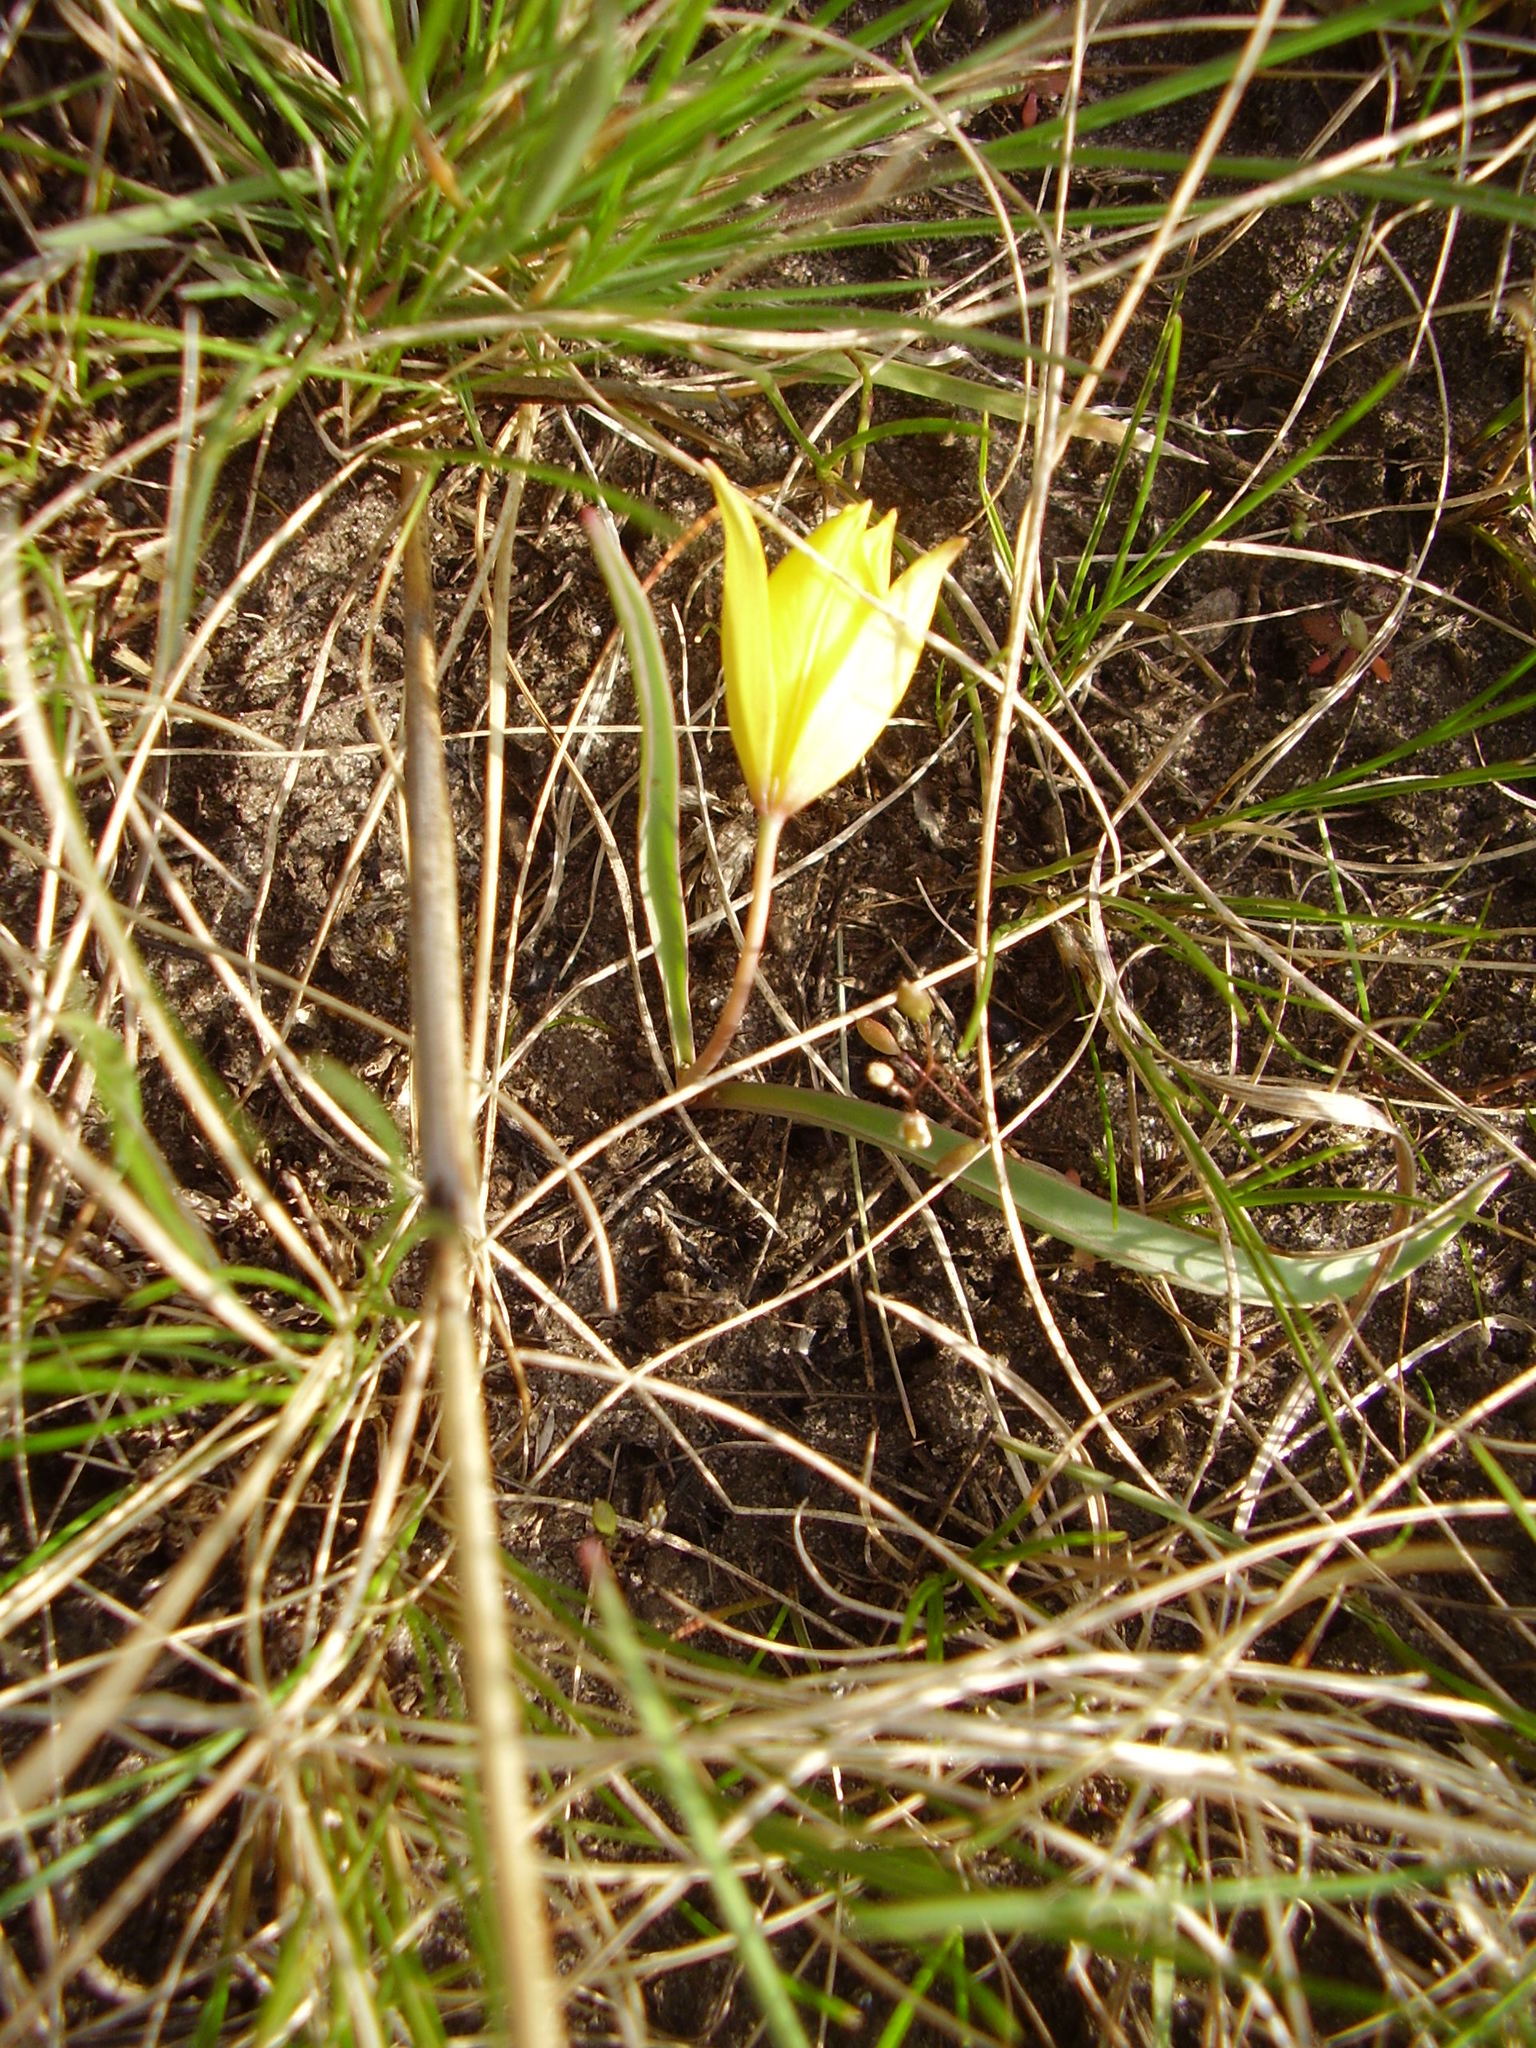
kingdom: Plantae
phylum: Tracheophyta
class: Liliopsida
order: Liliales
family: Liliaceae
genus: Tulipa
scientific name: Tulipa sylvestris
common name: Wild tulip
